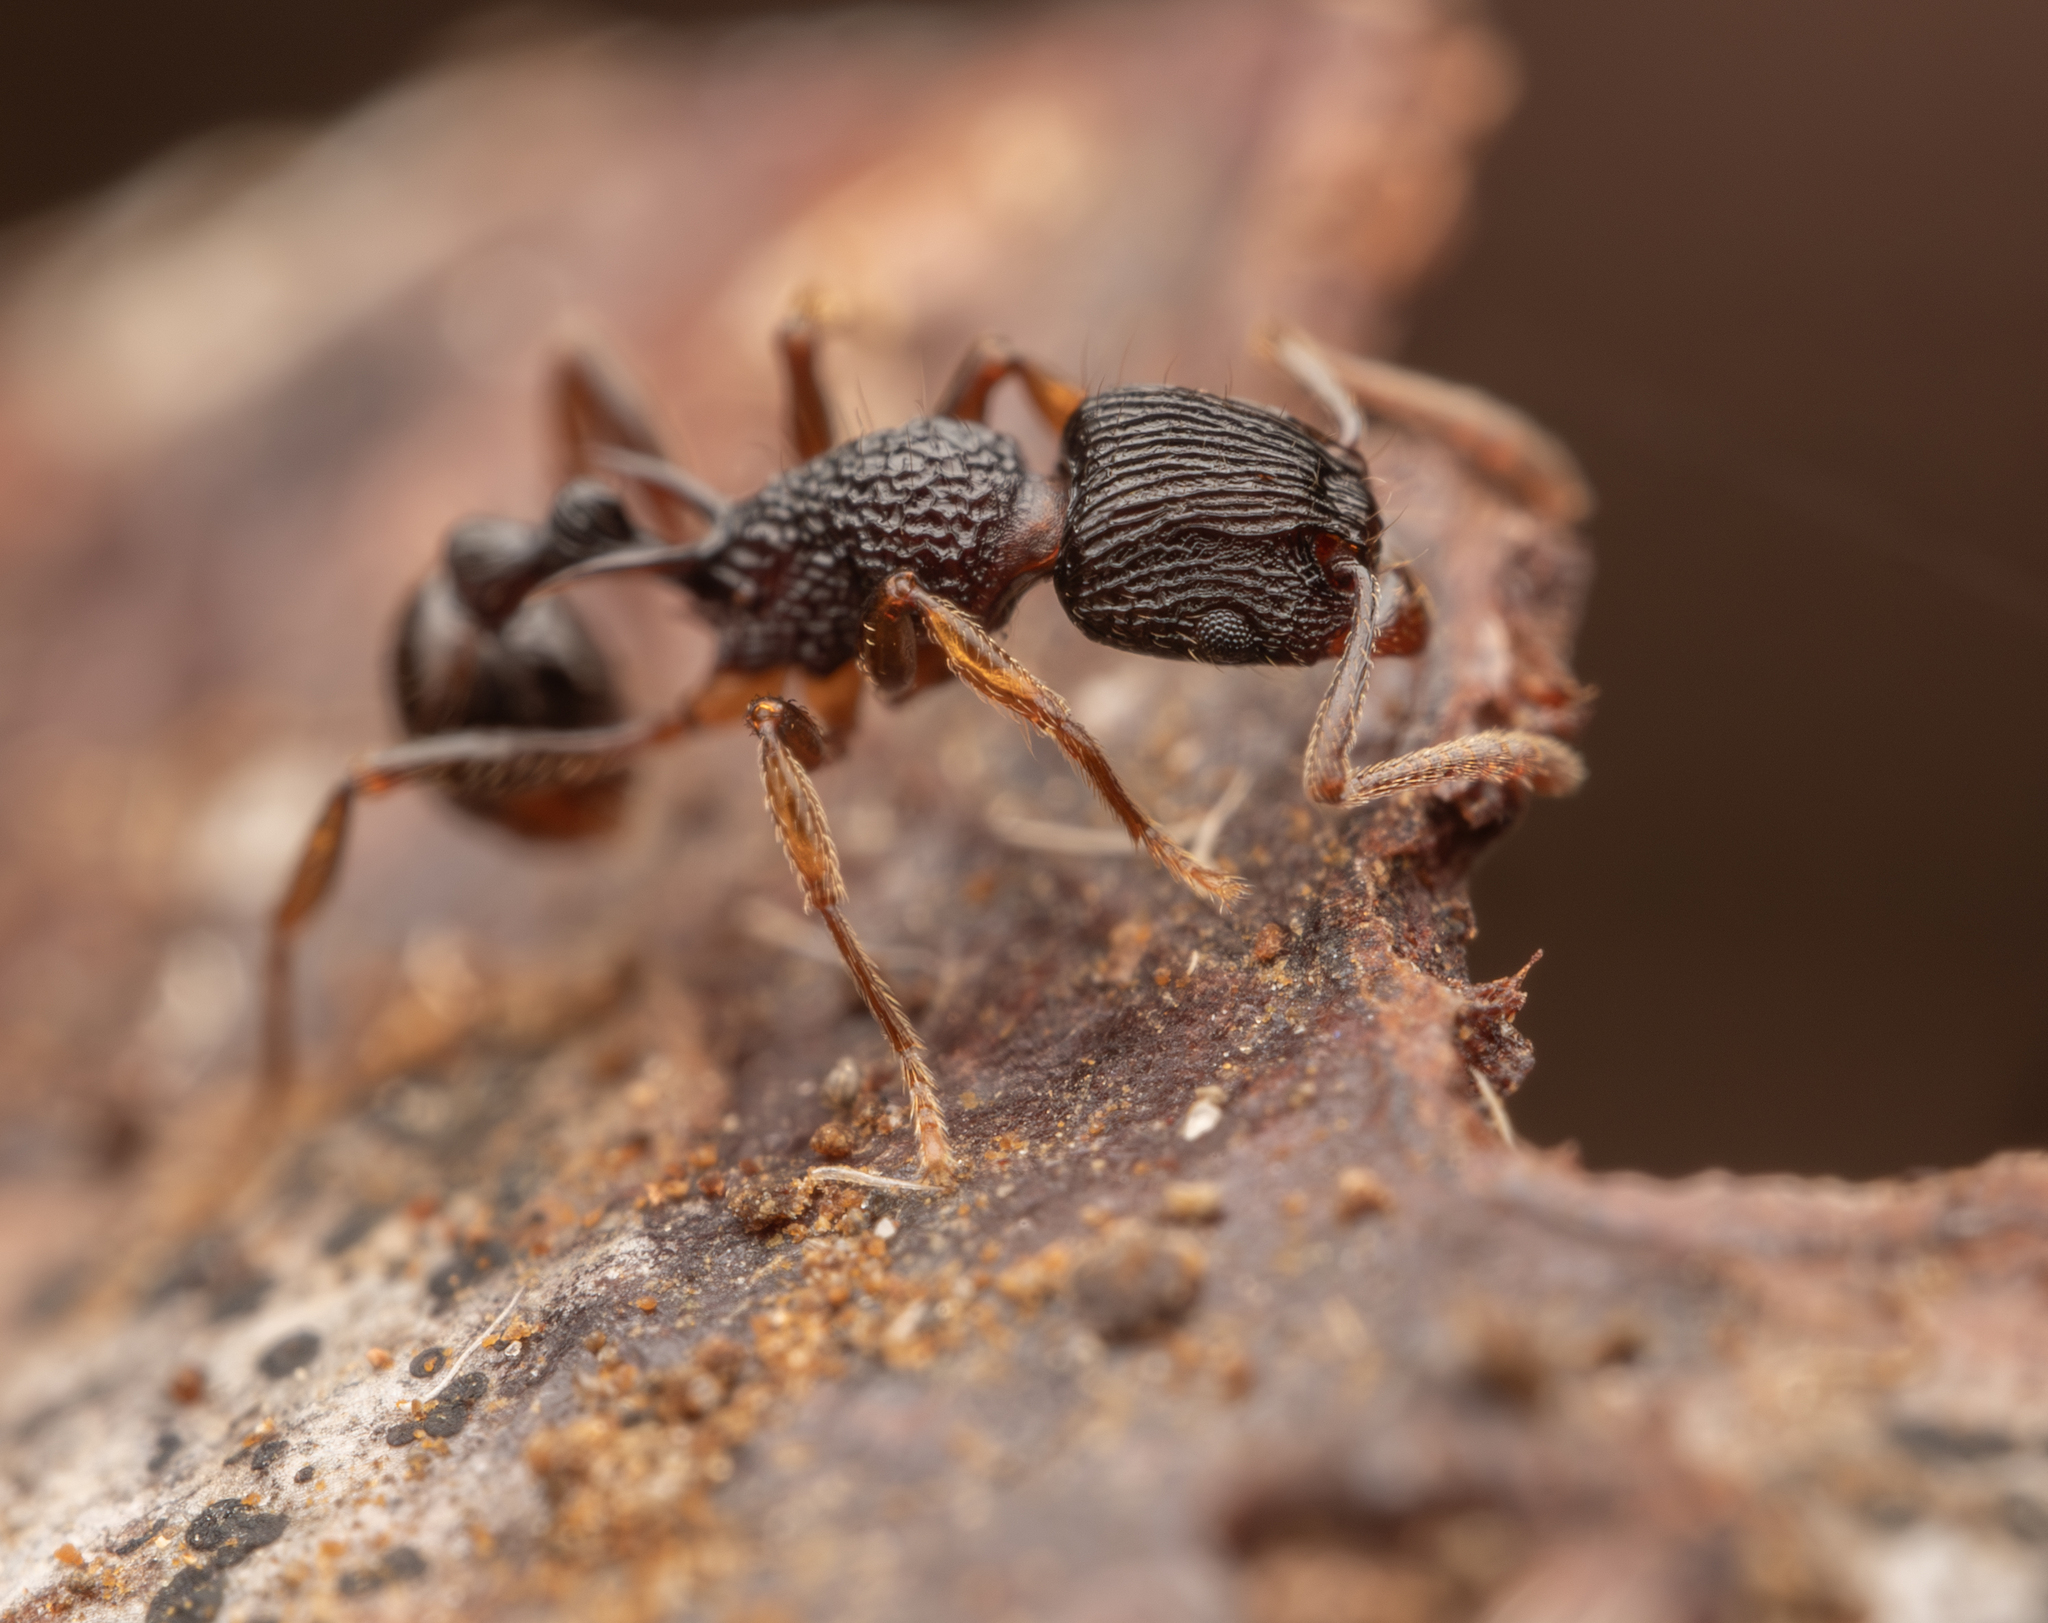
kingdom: Animalia
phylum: Arthropoda
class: Insecta
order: Hymenoptera
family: Formicidae
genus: Tetramorium
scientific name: Tetramorium wagneri
